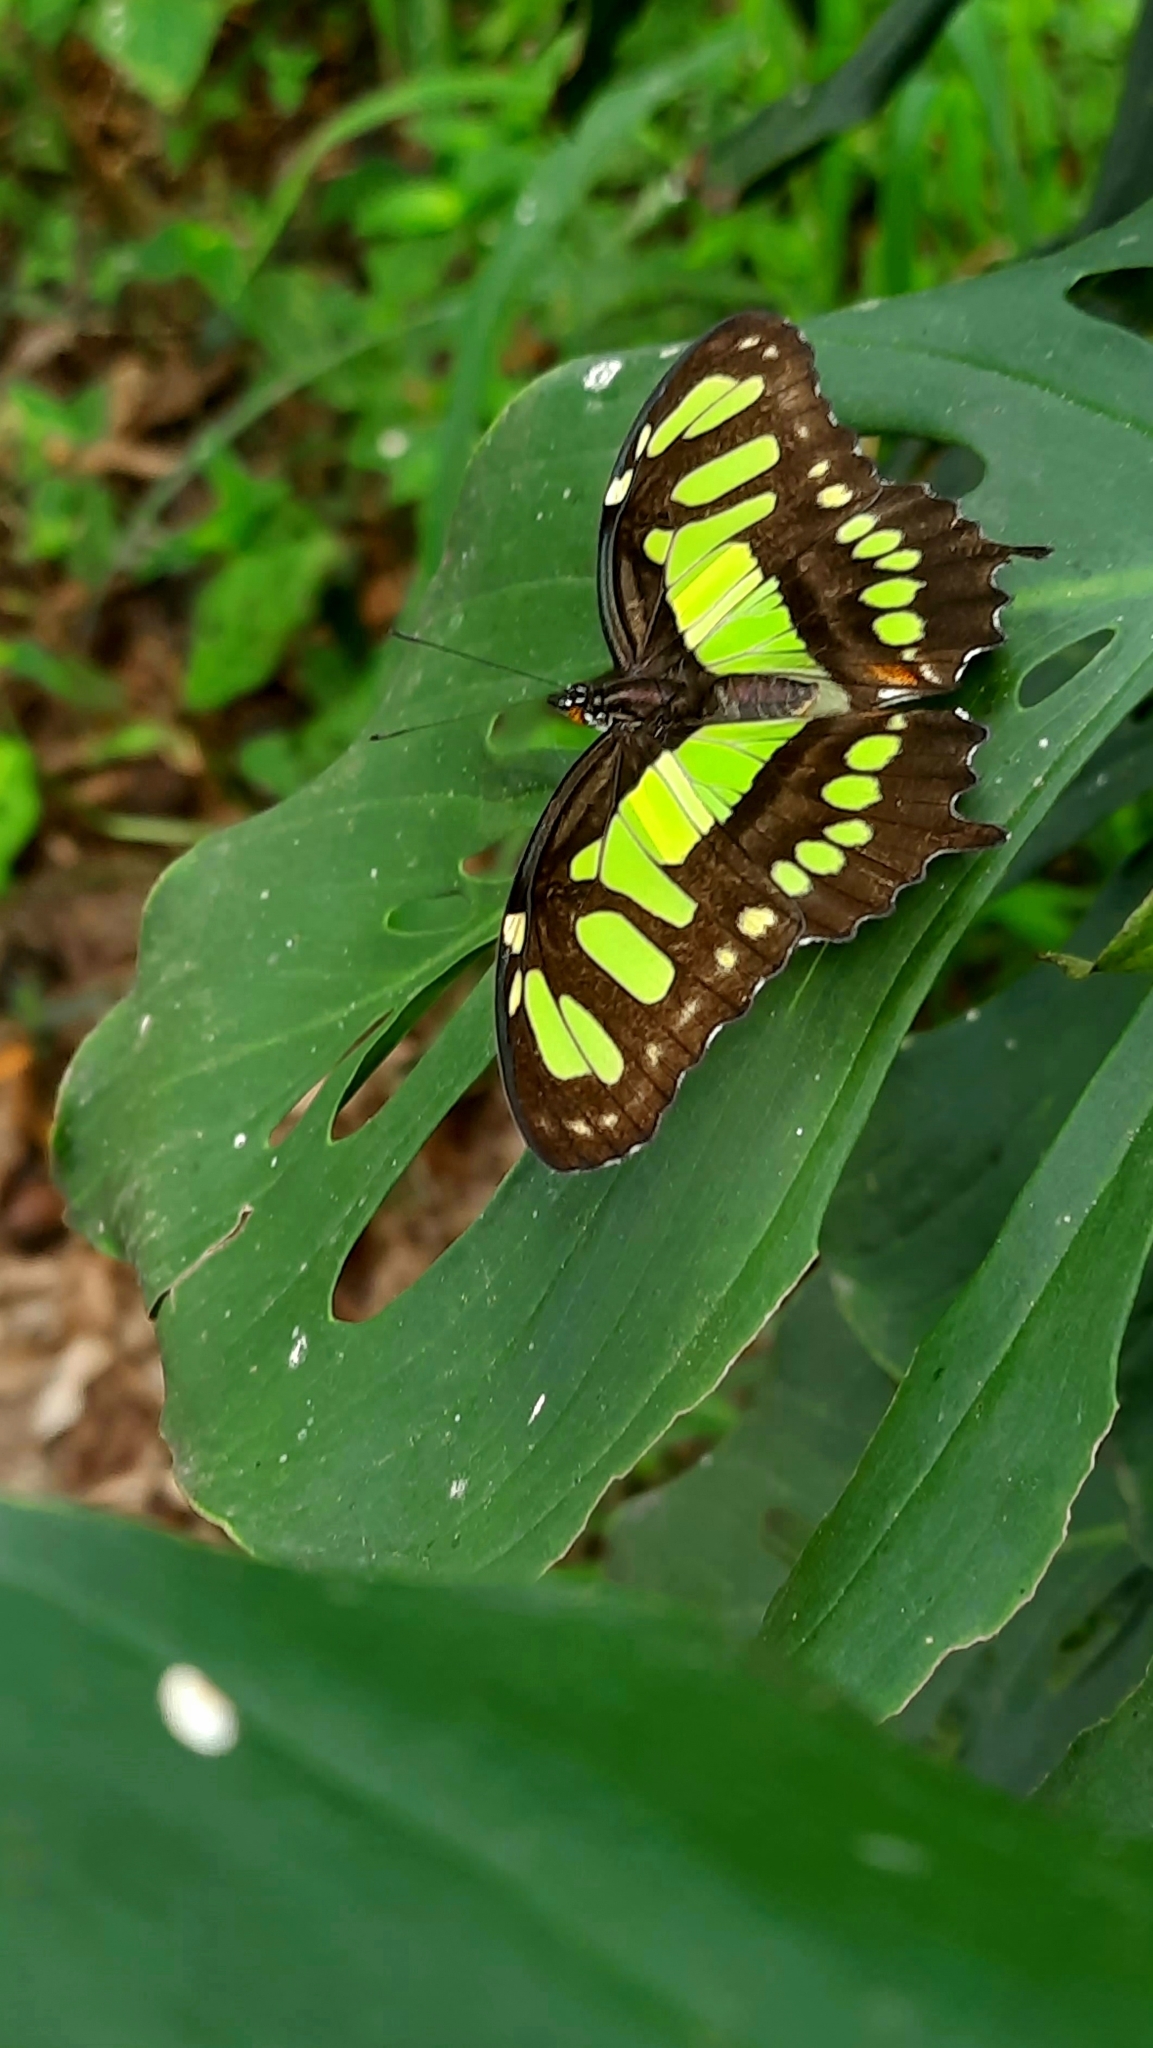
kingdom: Animalia
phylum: Arthropoda
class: Insecta
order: Lepidoptera
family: Nymphalidae
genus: Siproeta
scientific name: Siproeta stelenes
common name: Malachite
